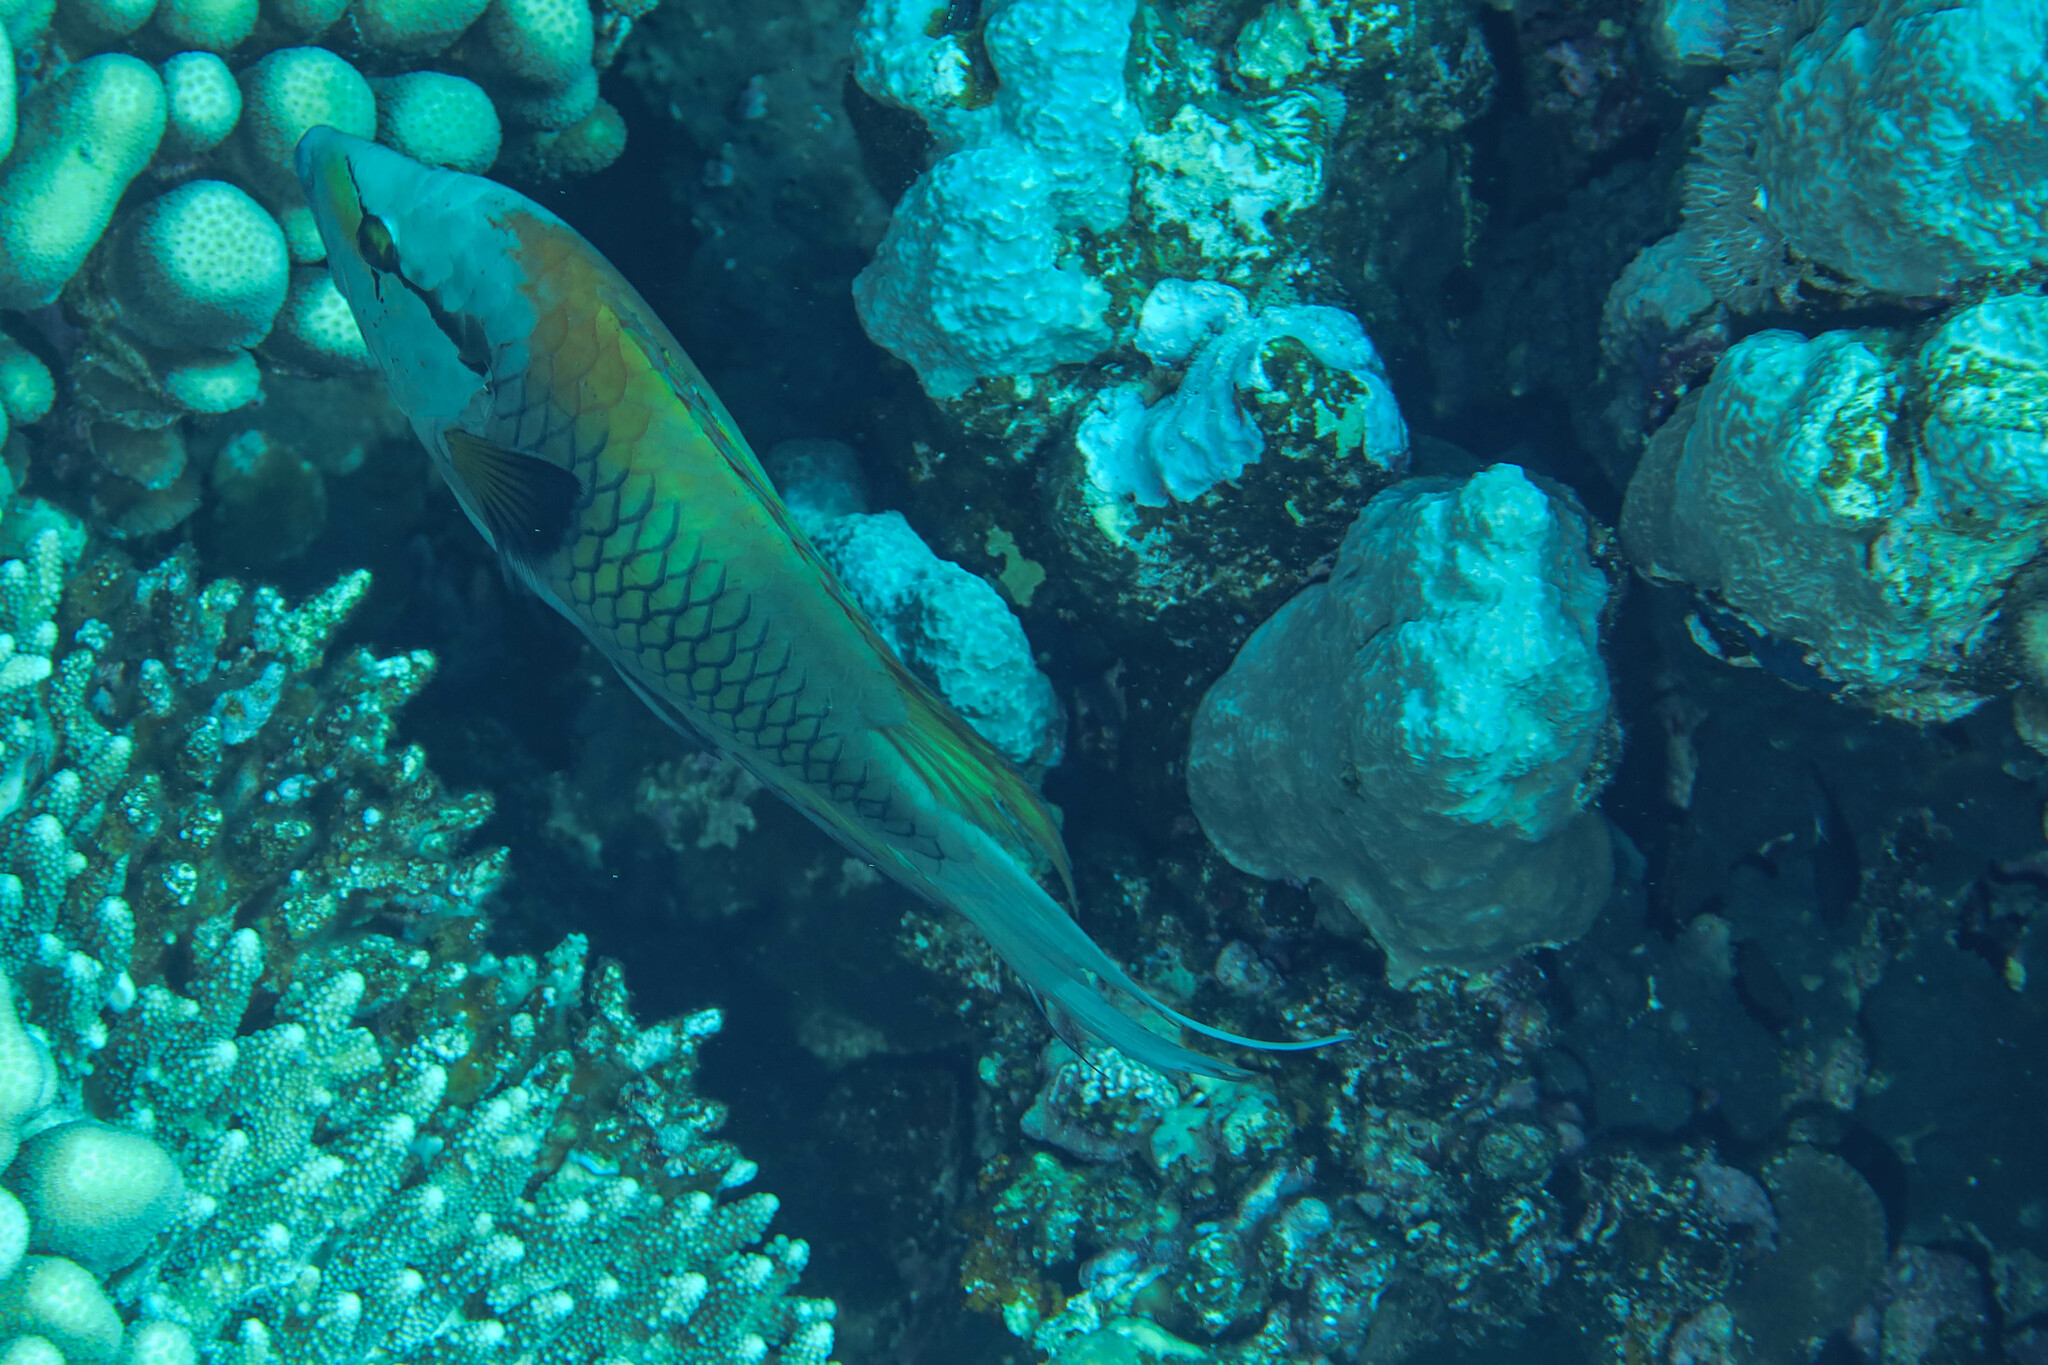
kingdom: Animalia
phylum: Chordata
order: Perciformes
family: Labridae
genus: Epibulus
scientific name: Epibulus insidiator
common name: Slingjaw wrasse
